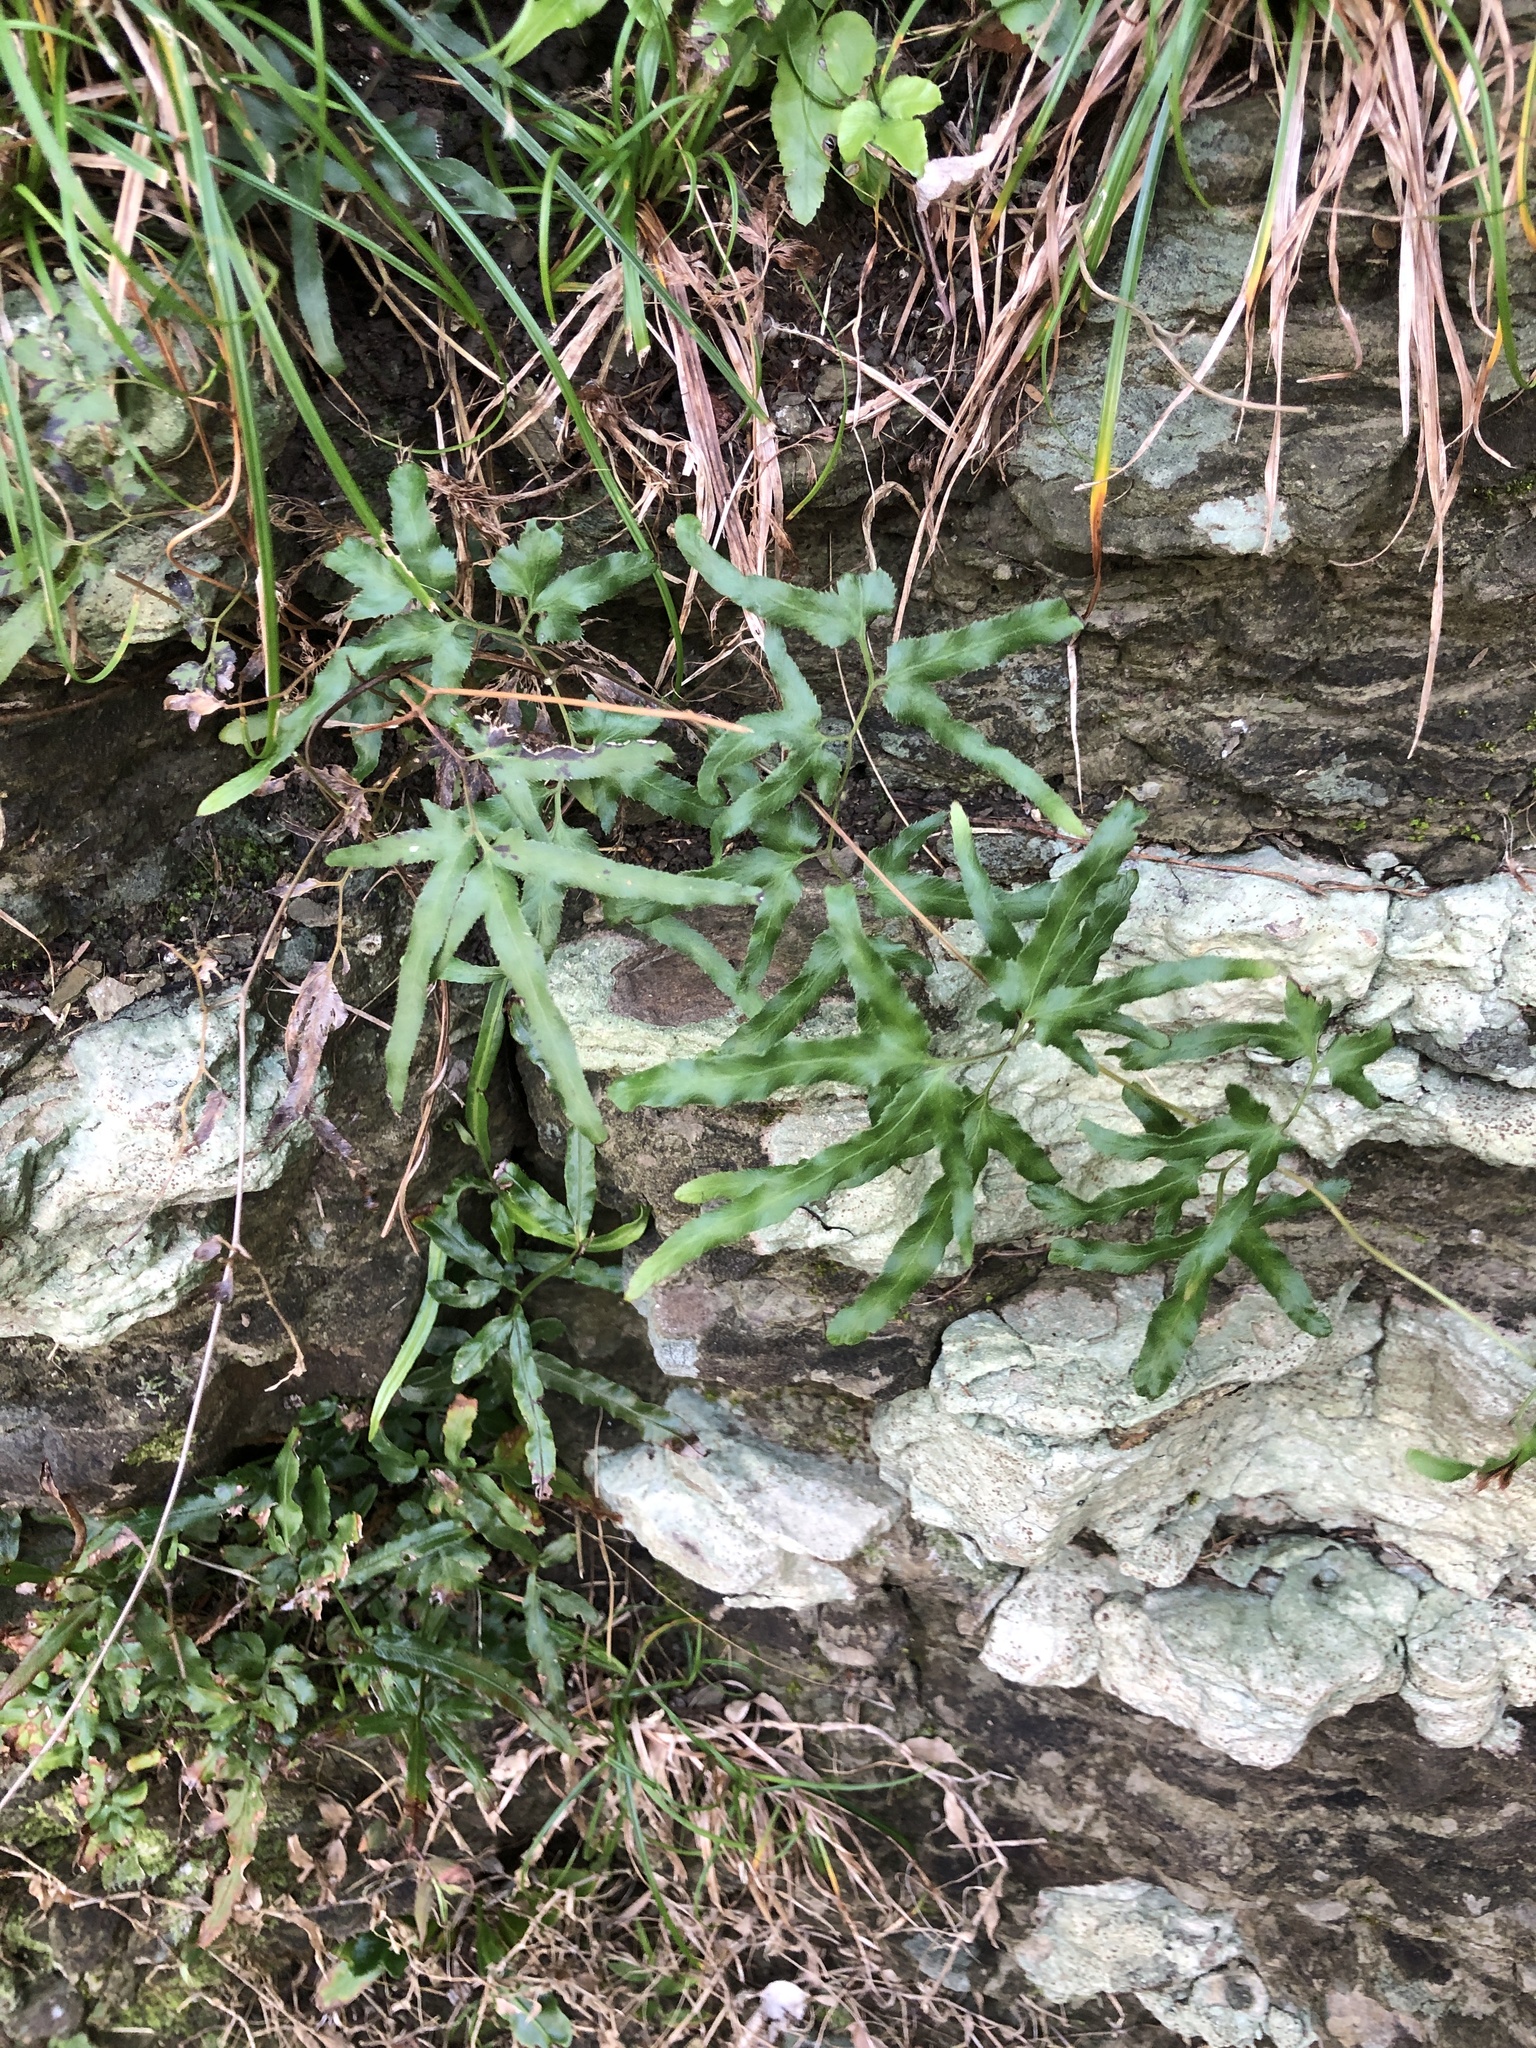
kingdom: Plantae
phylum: Tracheophyta
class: Polypodiopsida
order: Schizaeales
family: Lygodiaceae
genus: Lygodium
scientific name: Lygodium japonicum
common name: Japanese climbing fern
